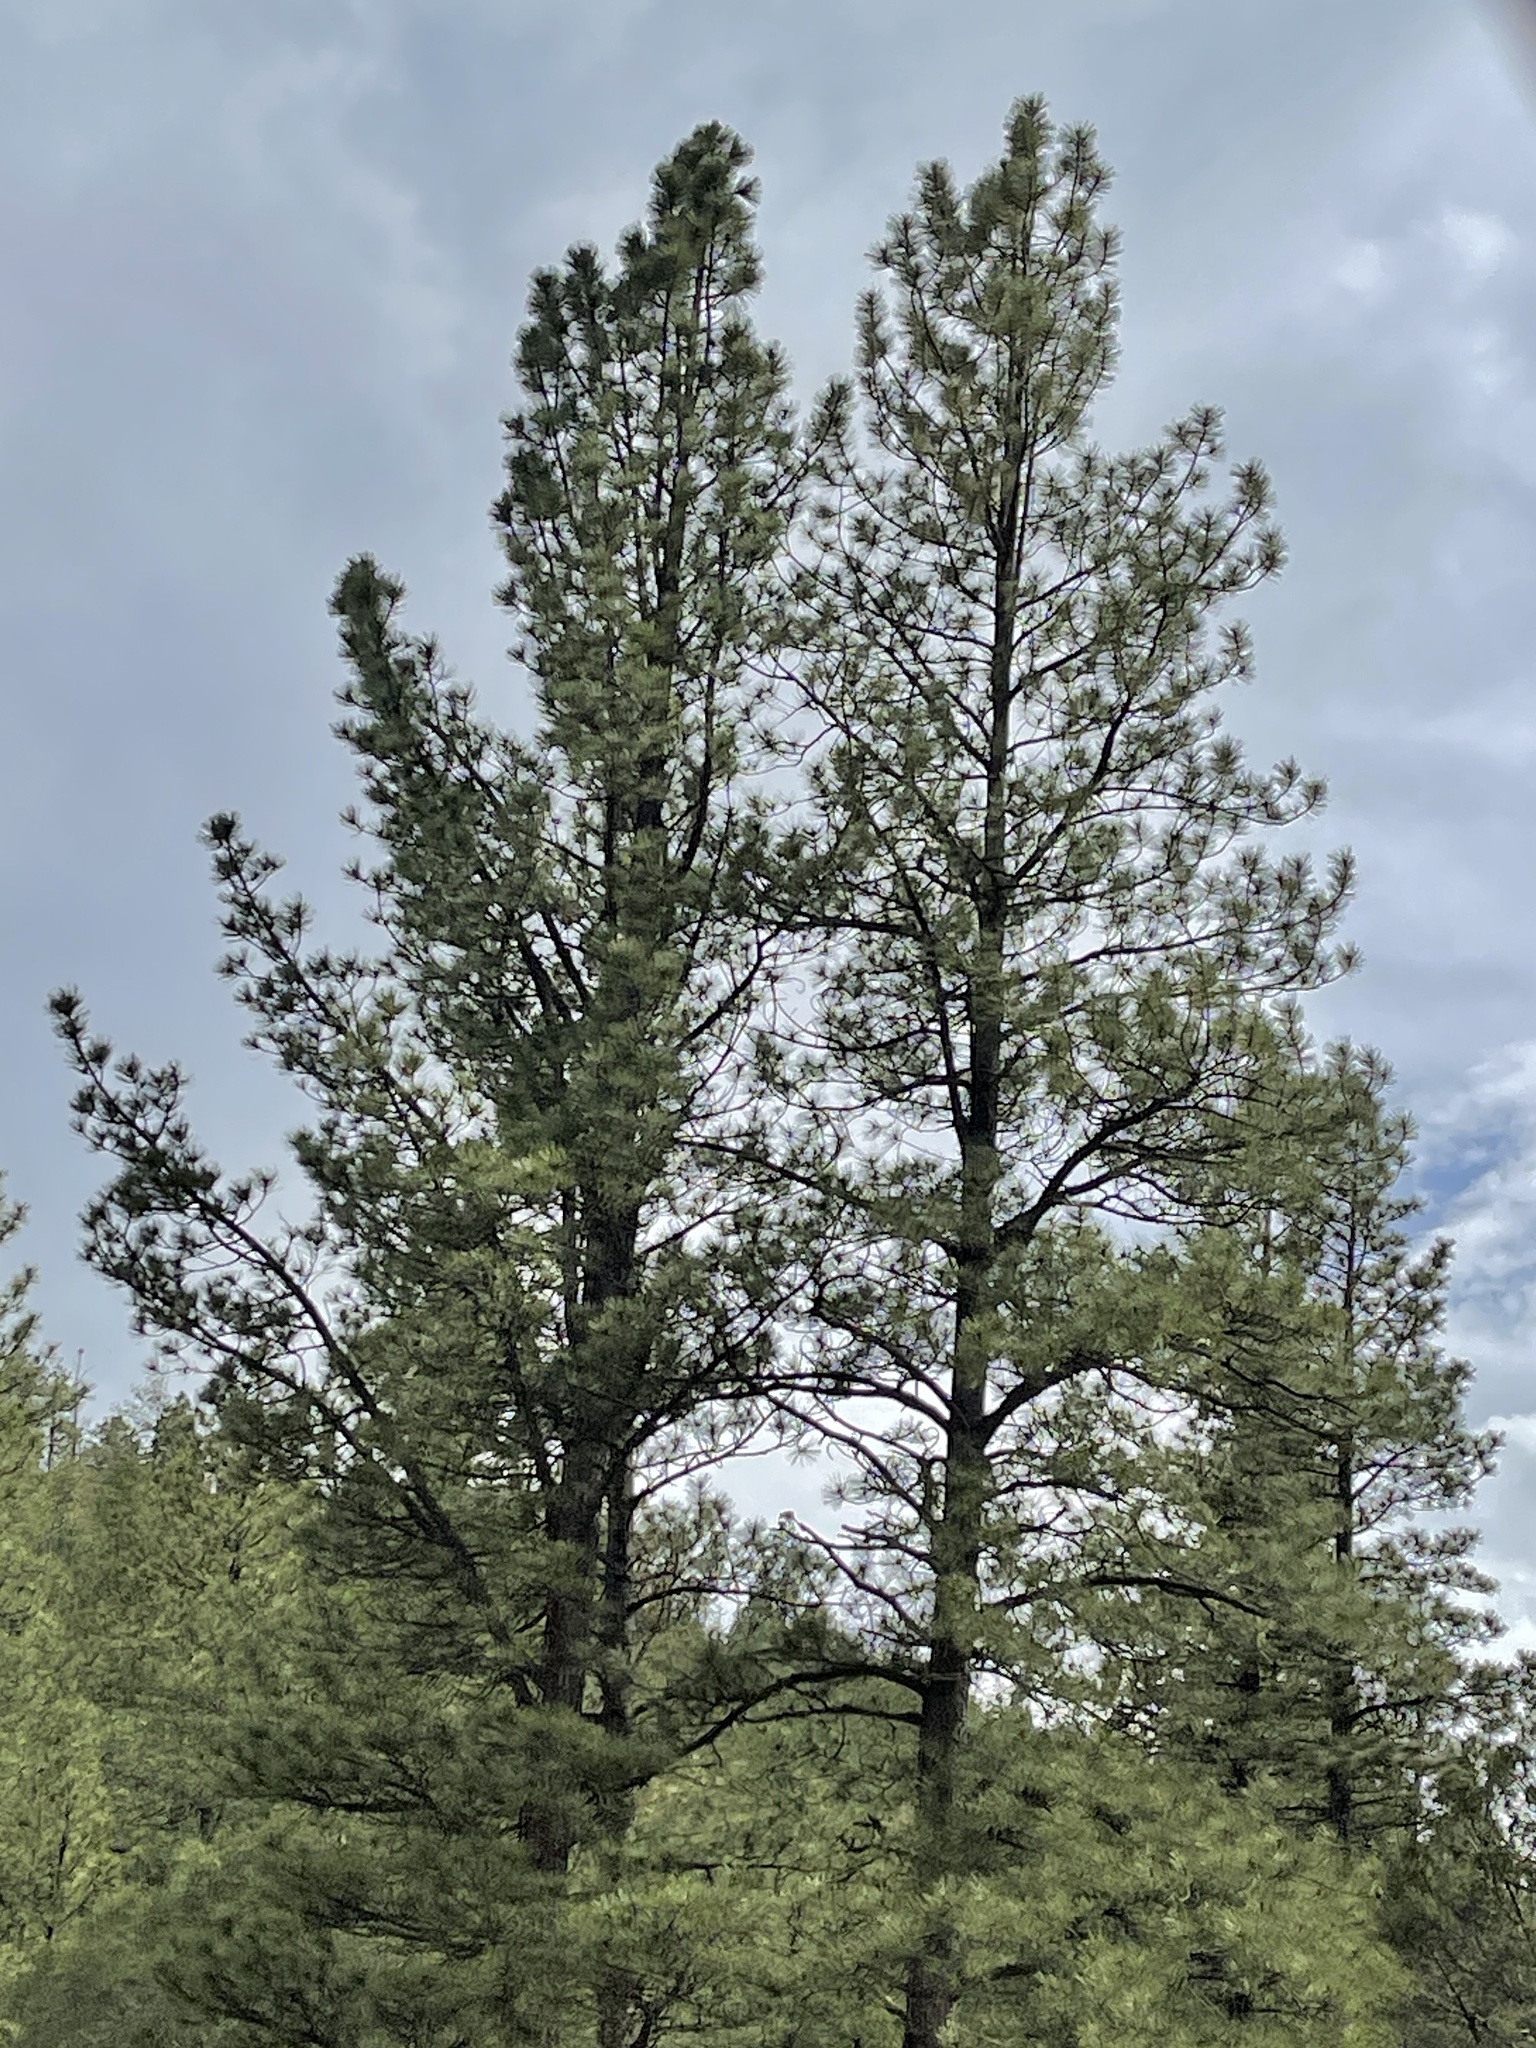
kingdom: Plantae
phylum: Tracheophyta
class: Pinopsida
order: Pinales
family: Pinaceae
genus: Pinus
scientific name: Pinus ponderosa
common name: Western yellow-pine
